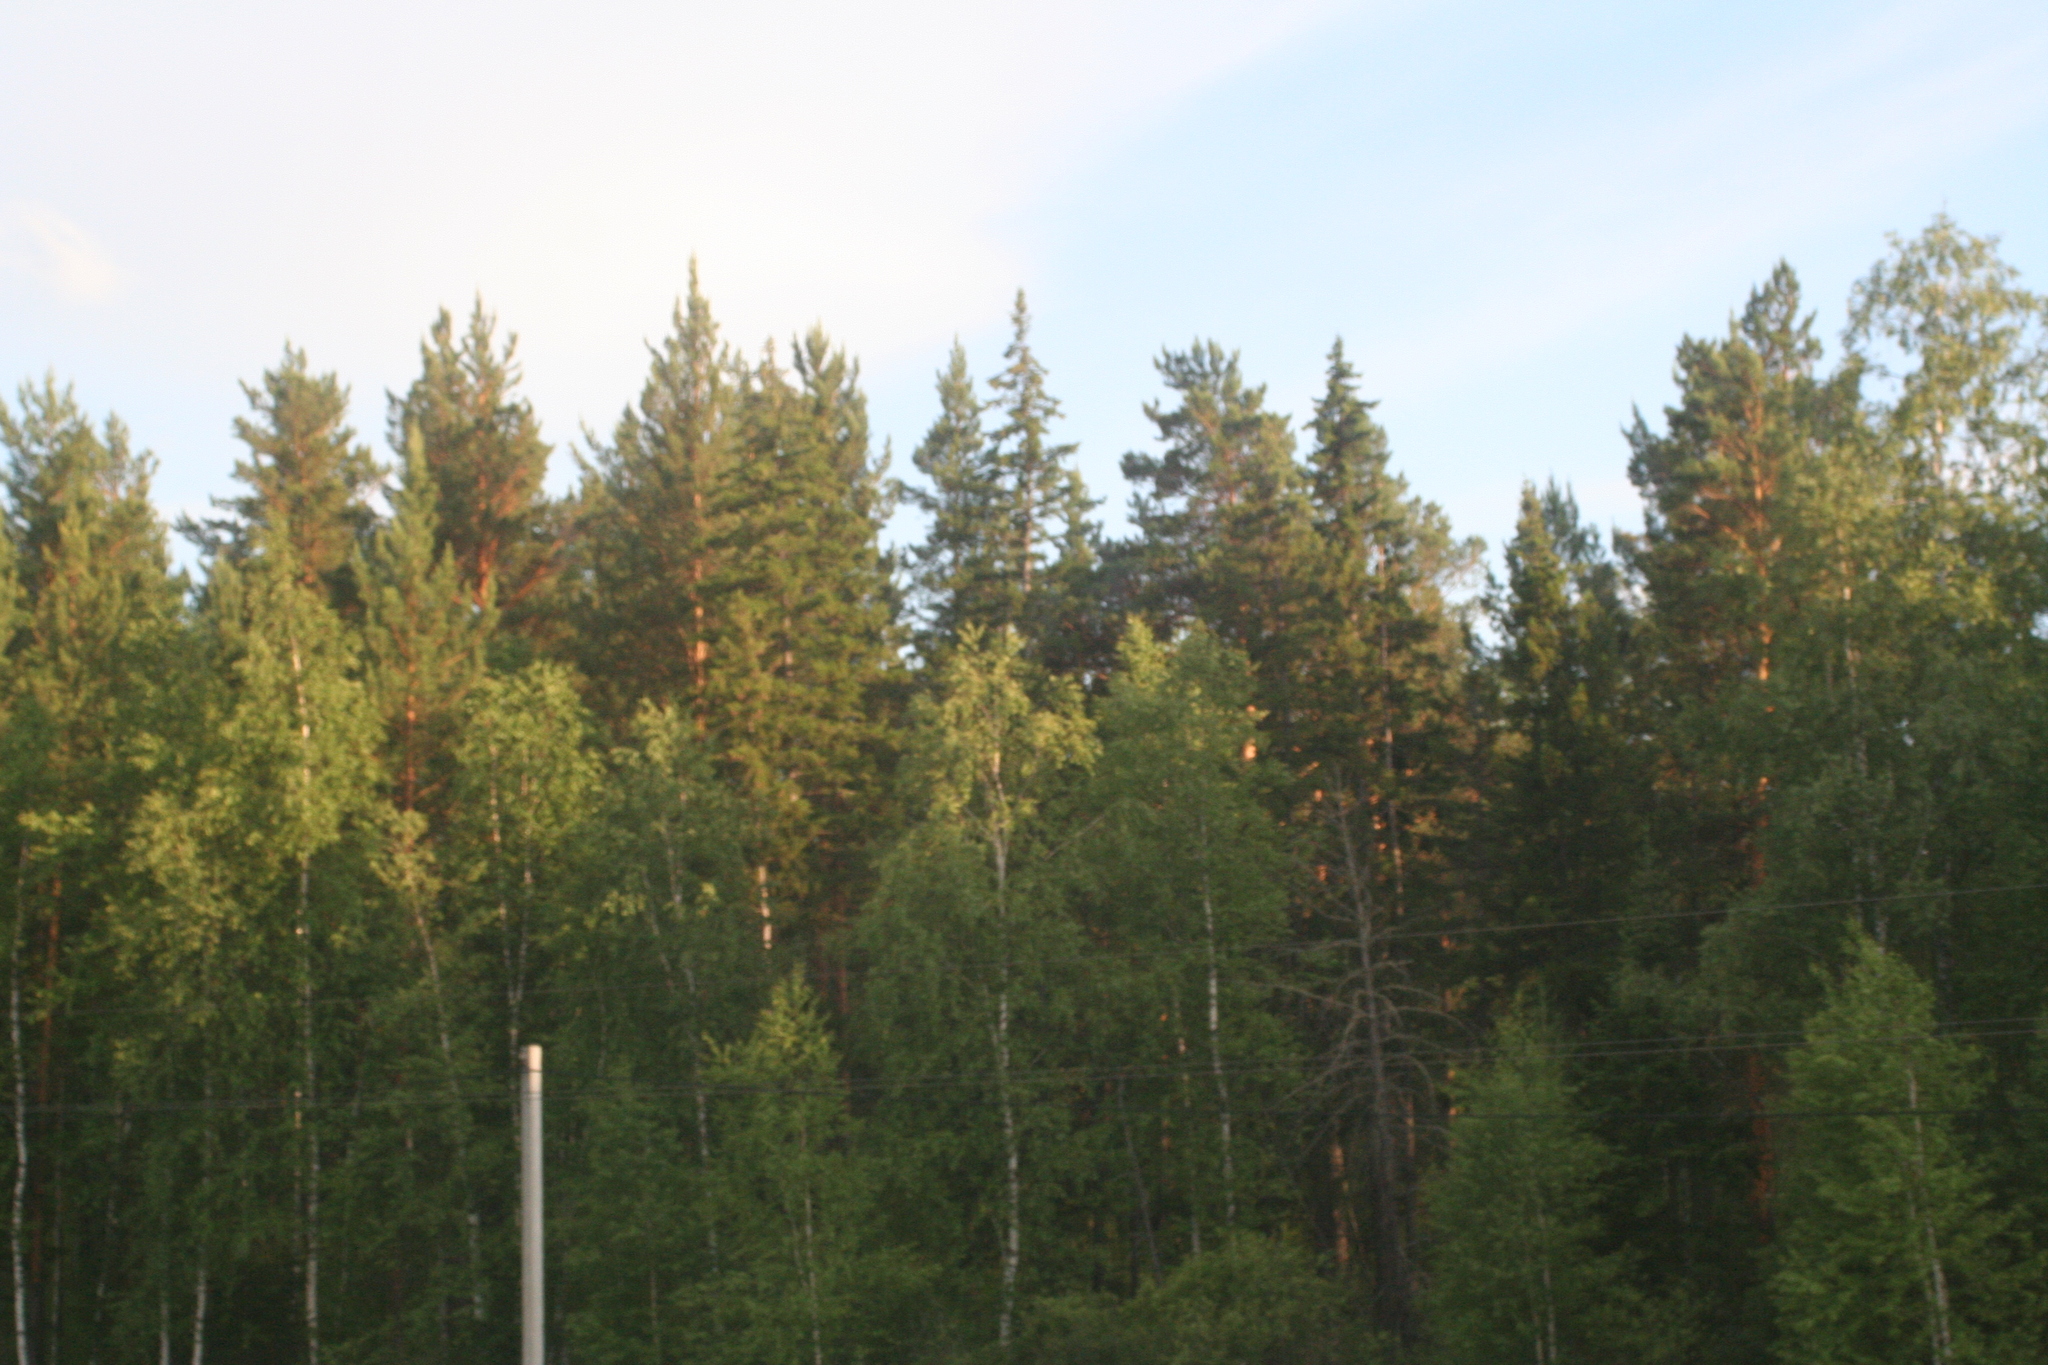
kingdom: Plantae
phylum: Tracheophyta
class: Pinopsida
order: Pinales
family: Pinaceae
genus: Pinus
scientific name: Pinus sylvestris
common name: Scots pine
